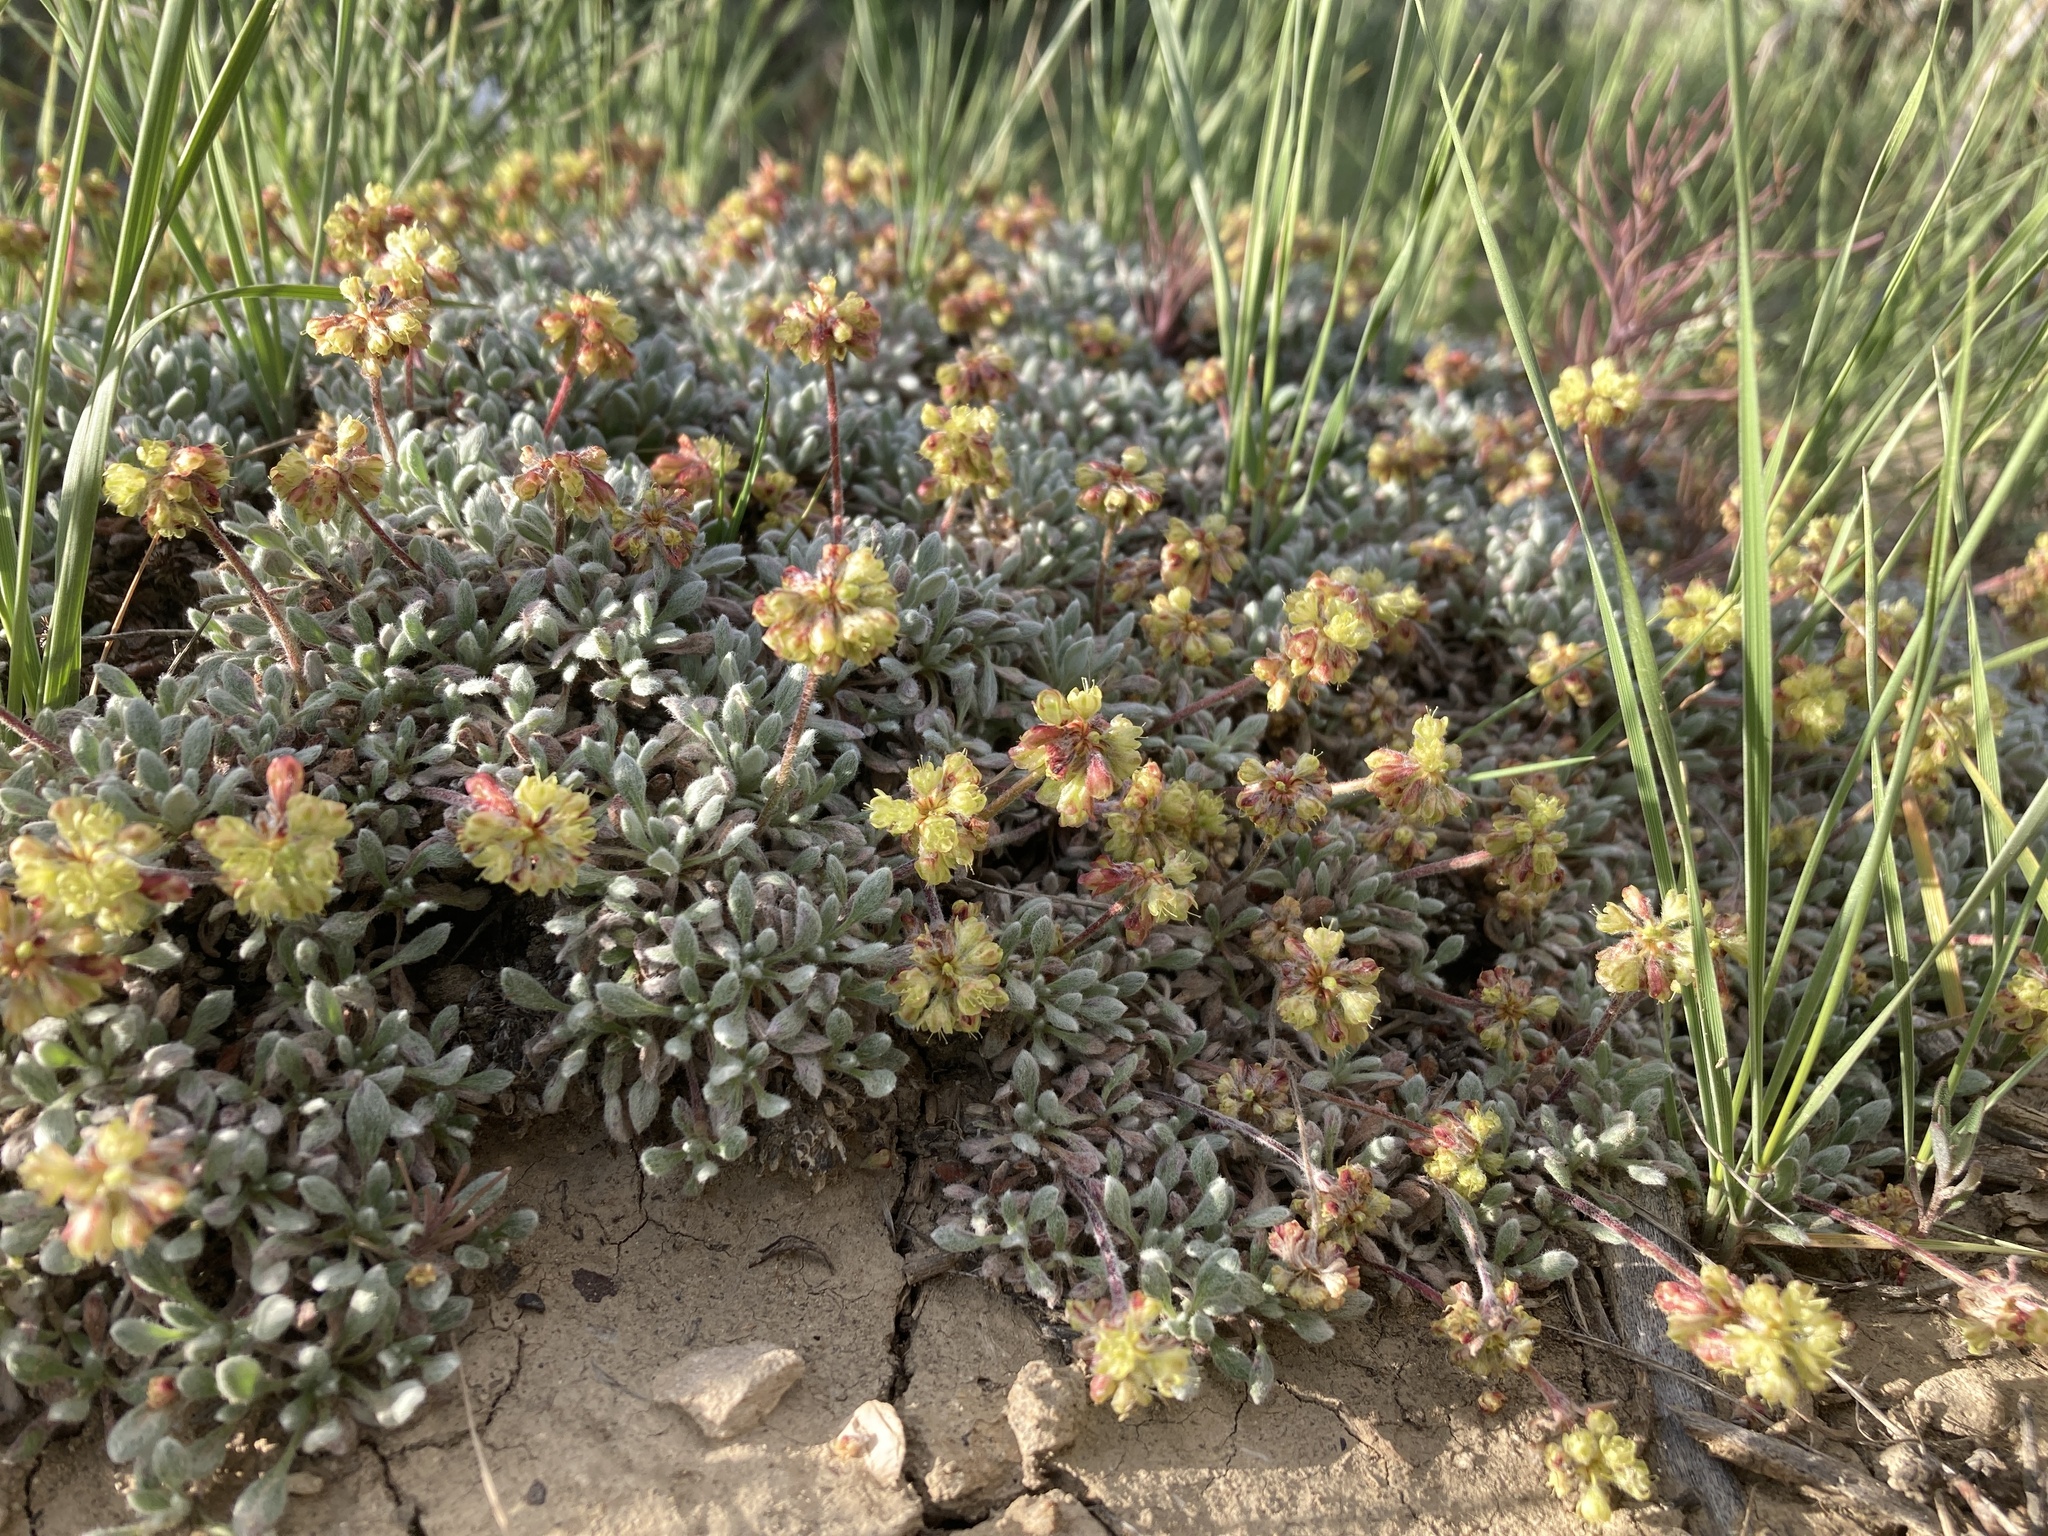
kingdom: Plantae
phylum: Tracheophyta
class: Magnoliopsida
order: Caryophyllales
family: Polygonaceae
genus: Eriogonum
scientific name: Eriogonum caespitosum
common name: Matted wild buckwheat
